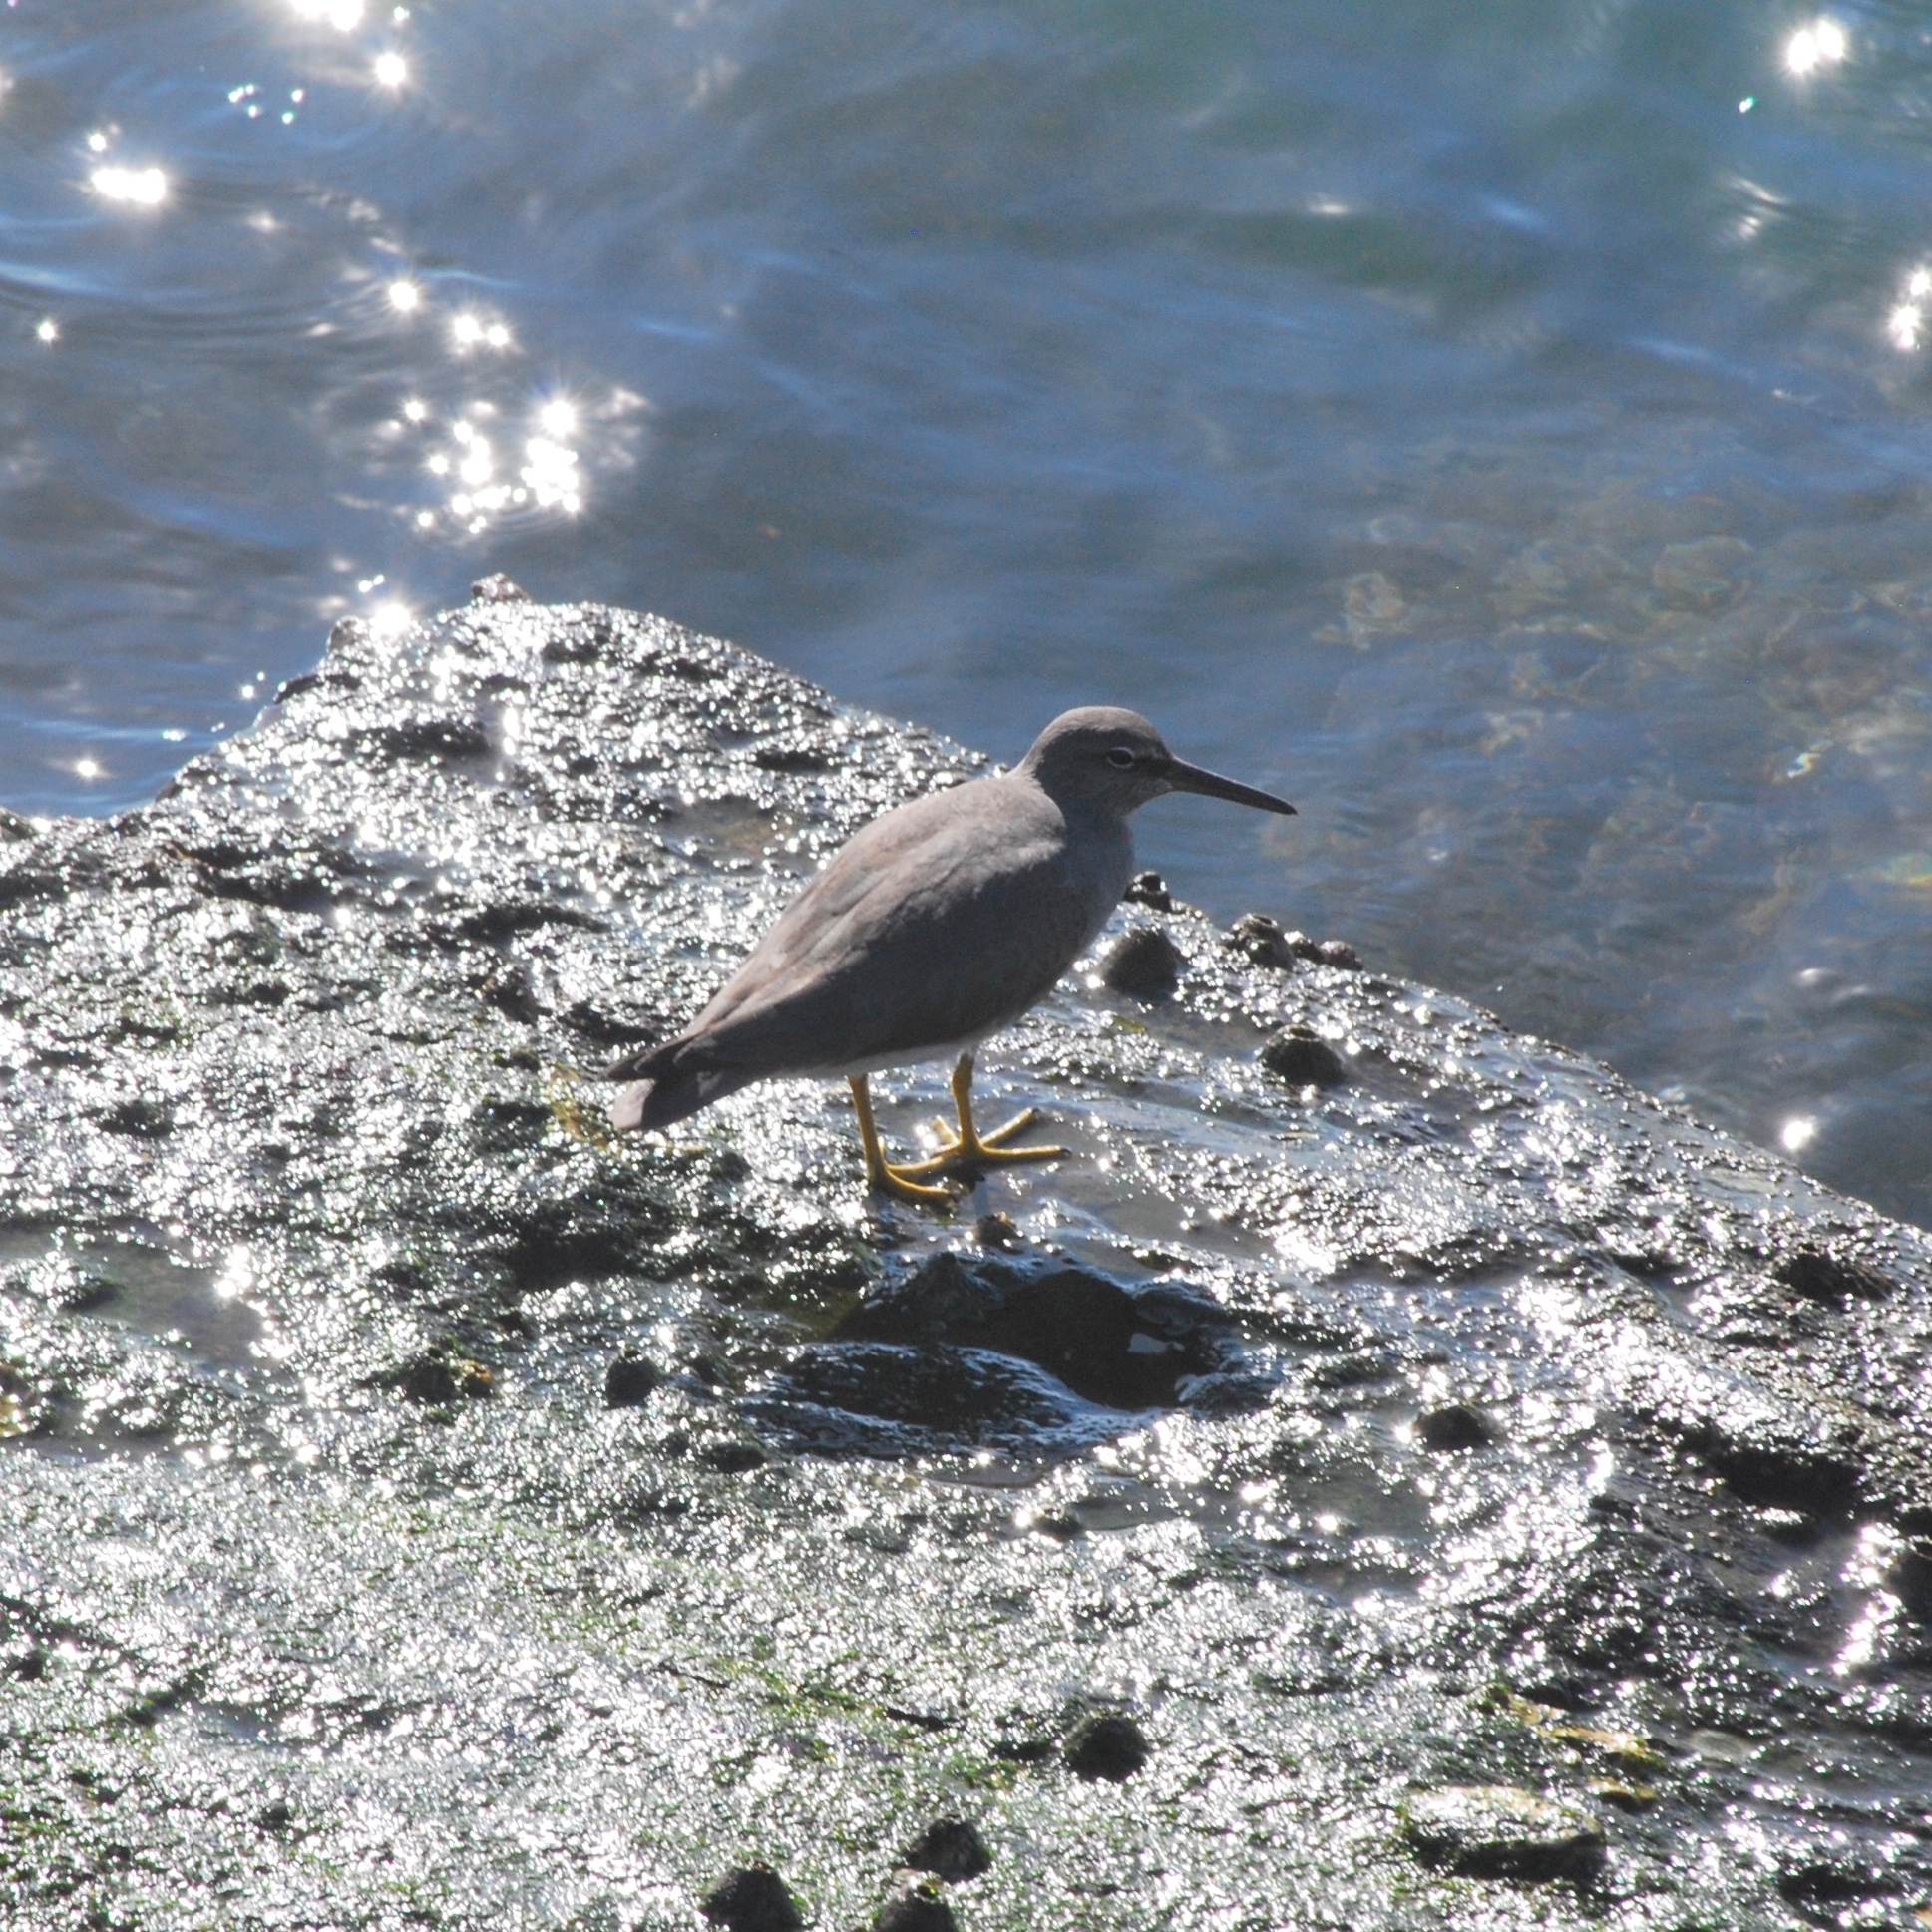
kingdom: Animalia
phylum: Chordata
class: Aves
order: Charadriiformes
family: Scolopacidae
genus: Tringa
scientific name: Tringa incana
